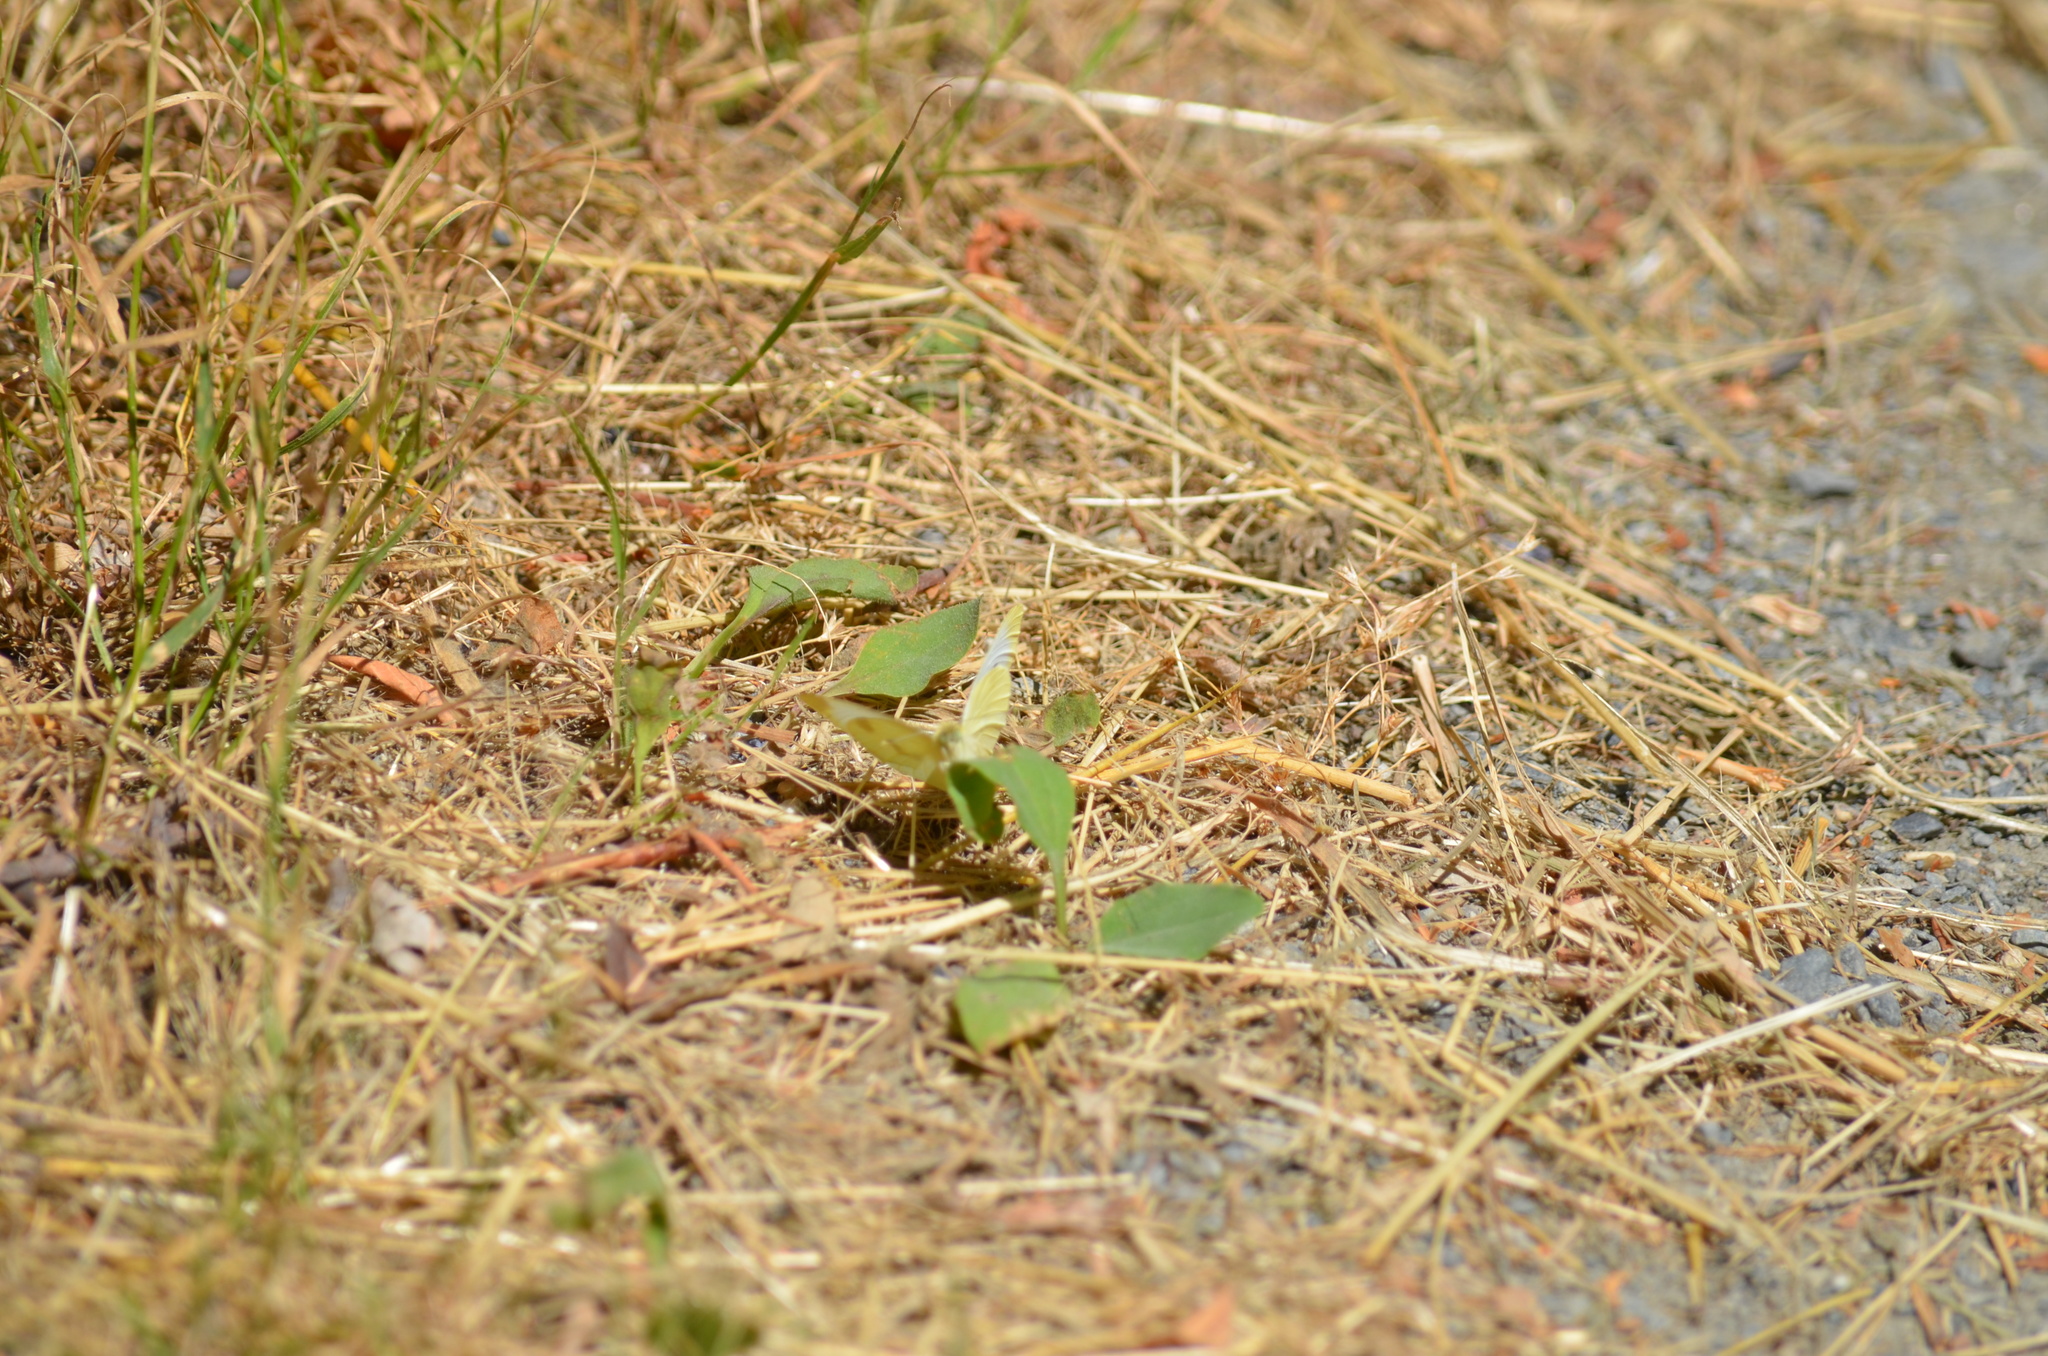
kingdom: Animalia
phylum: Arthropoda
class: Insecta
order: Lepidoptera
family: Pieridae
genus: Pieris
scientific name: Pieris rapae
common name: Small white
